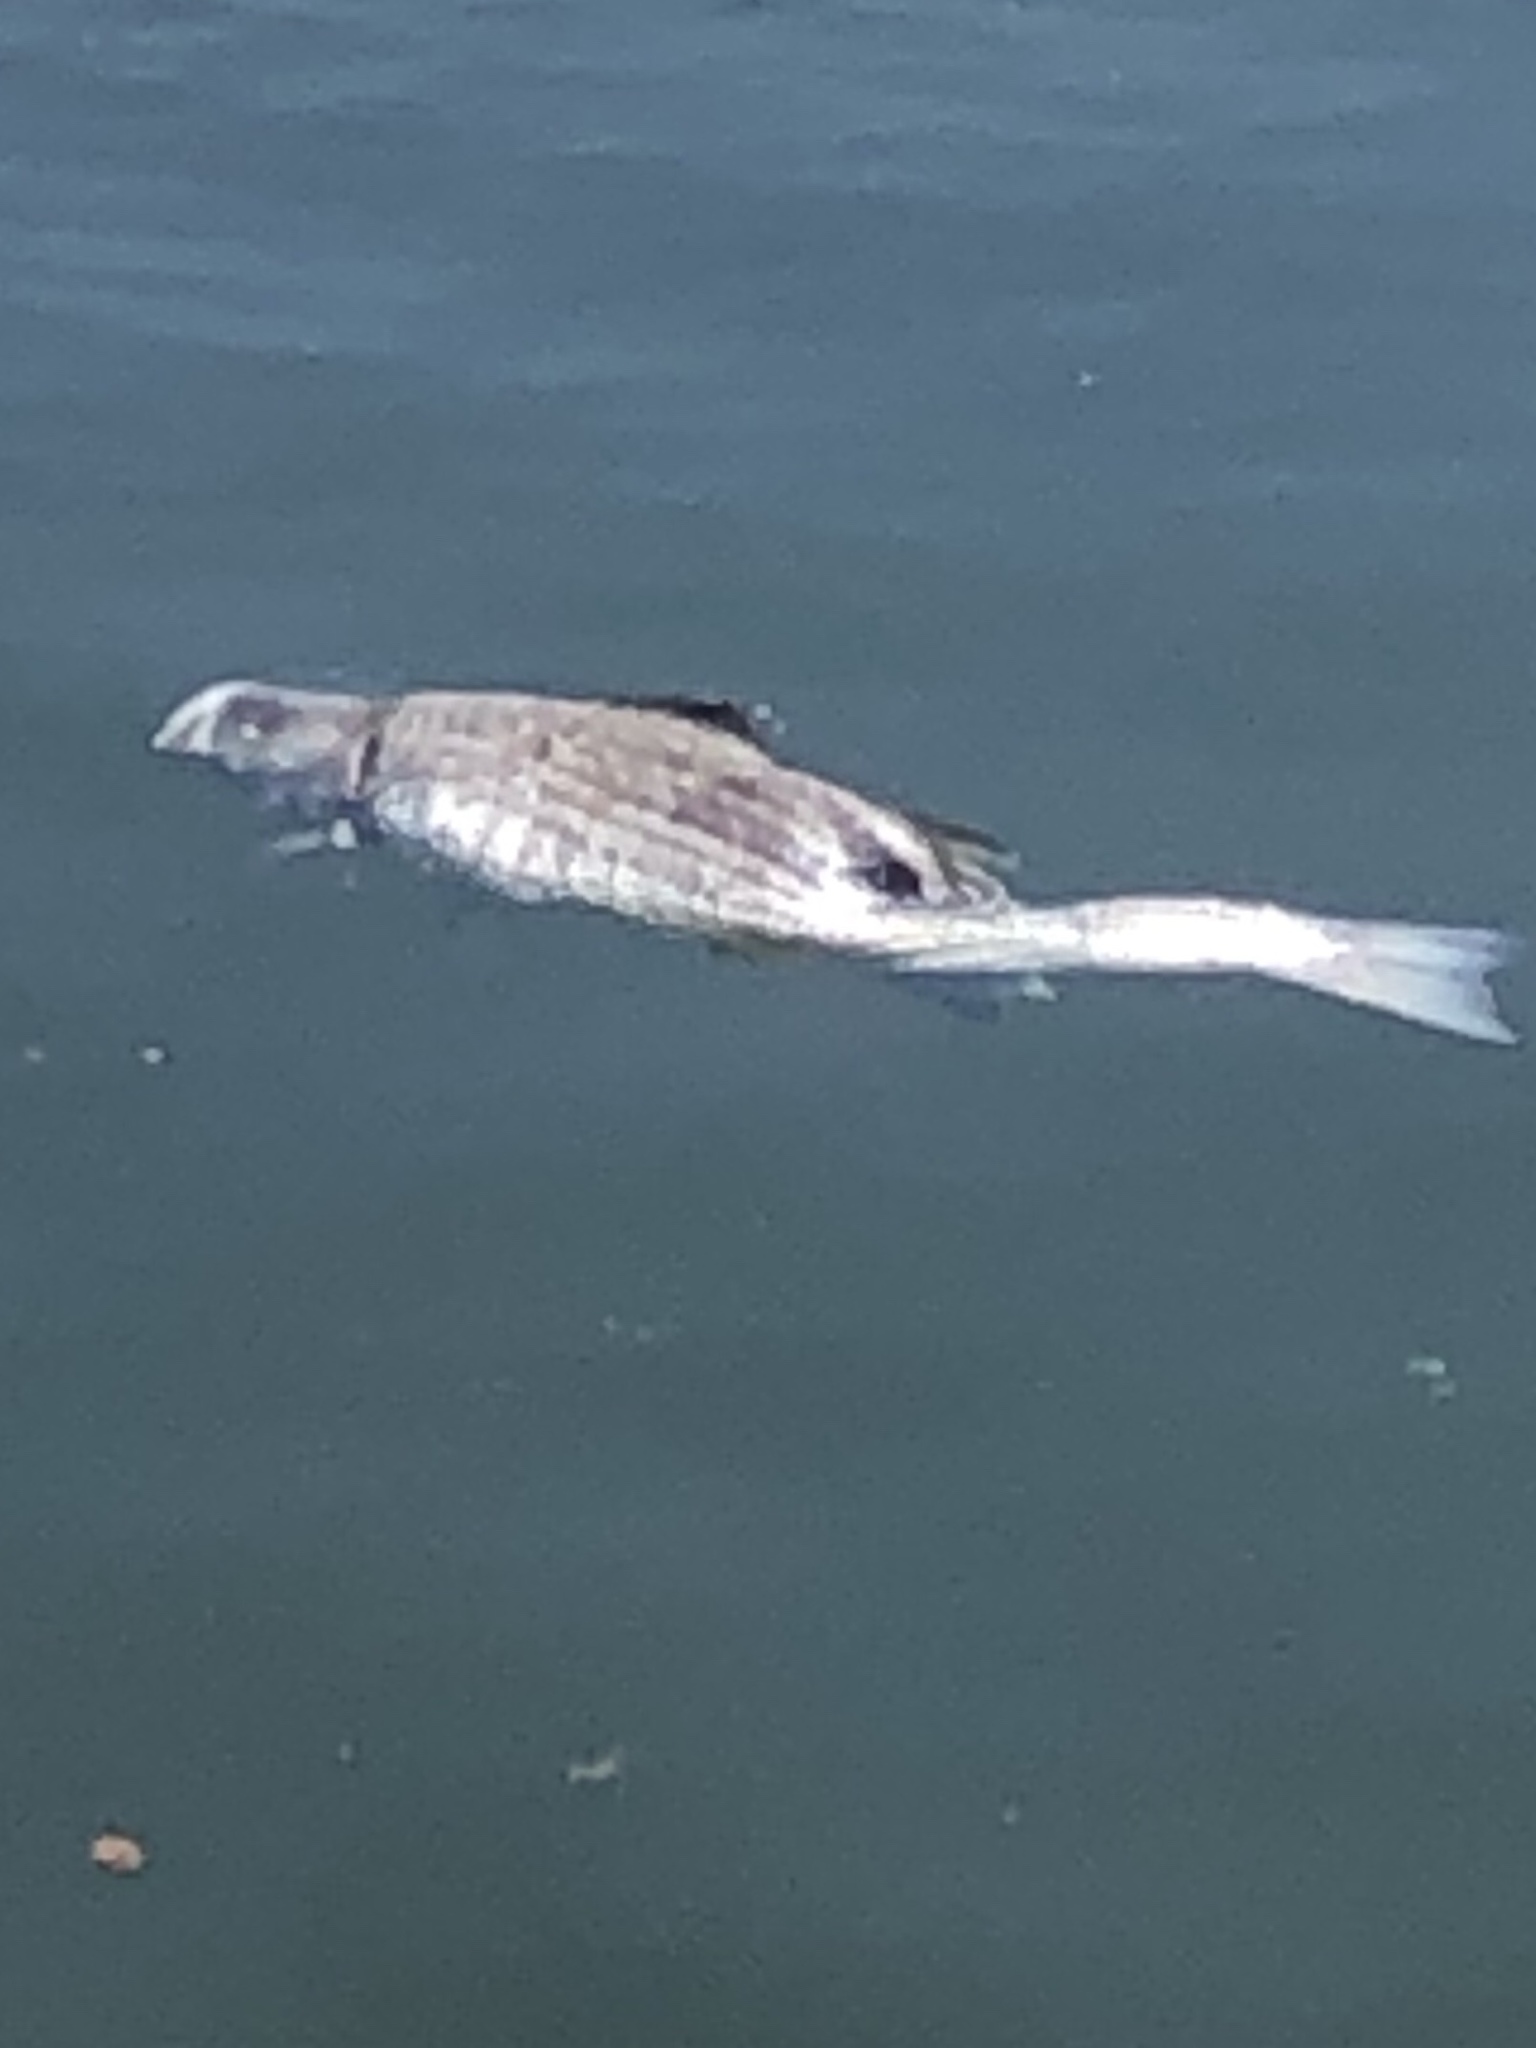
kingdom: Animalia
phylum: Chordata
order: Perciformes
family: Moronidae
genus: Morone
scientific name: Morone saxatilis
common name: Striped bass
